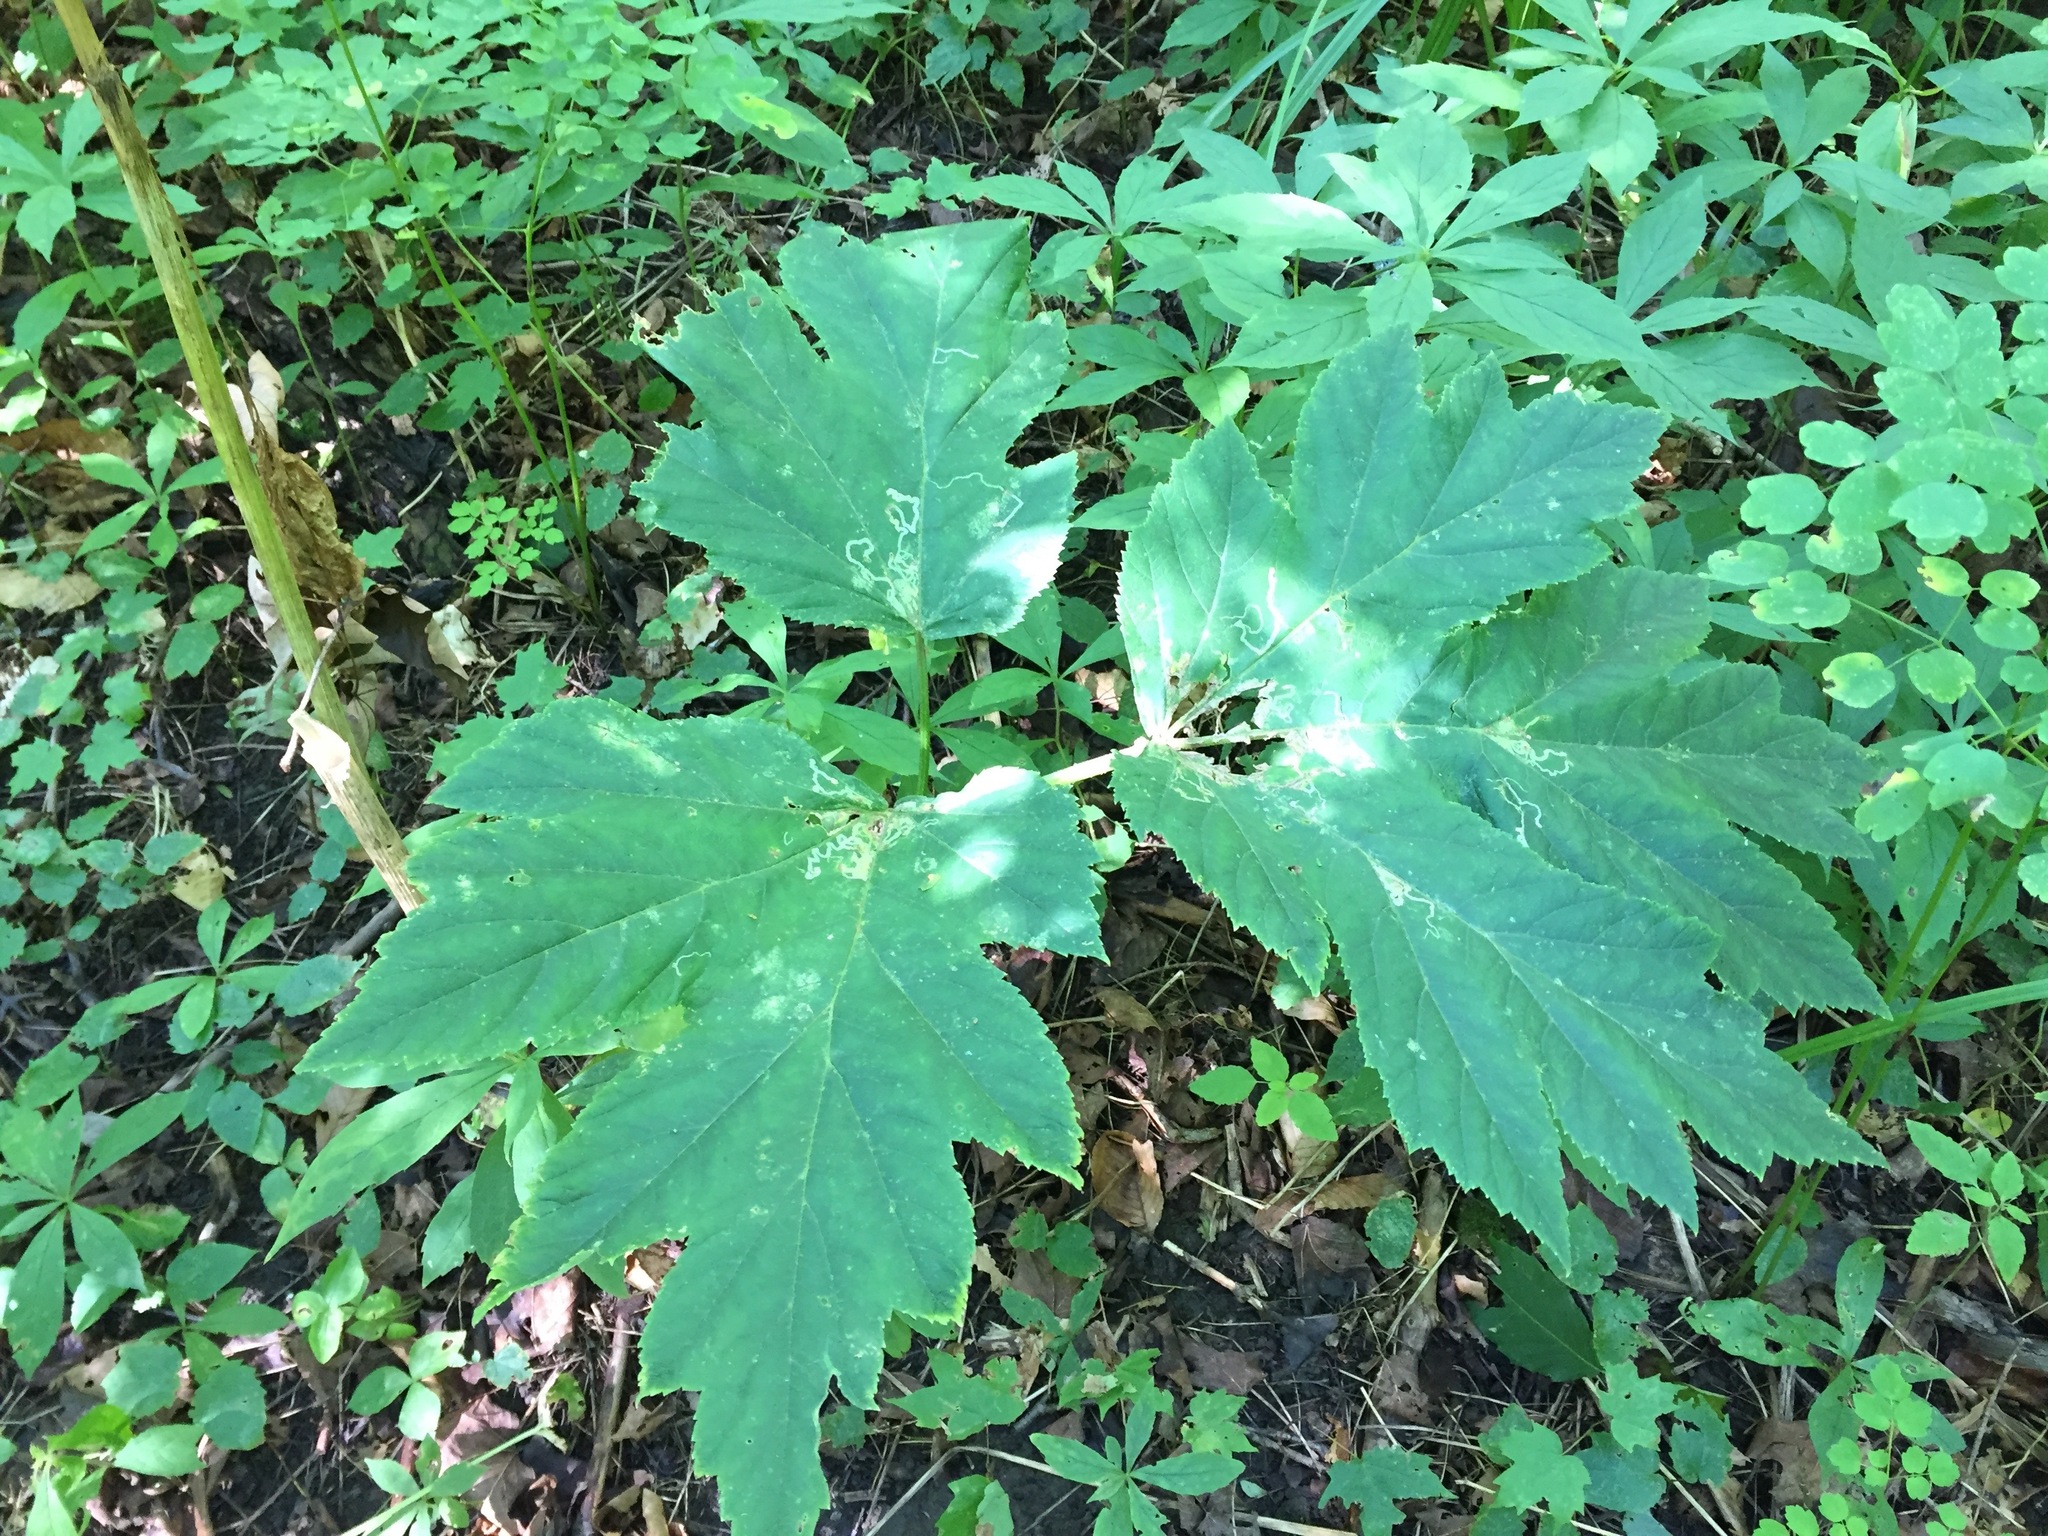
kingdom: Plantae
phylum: Tracheophyta
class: Magnoliopsida
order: Apiales
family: Apiaceae
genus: Heracleum
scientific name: Heracleum maximum
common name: American cow parsnip
